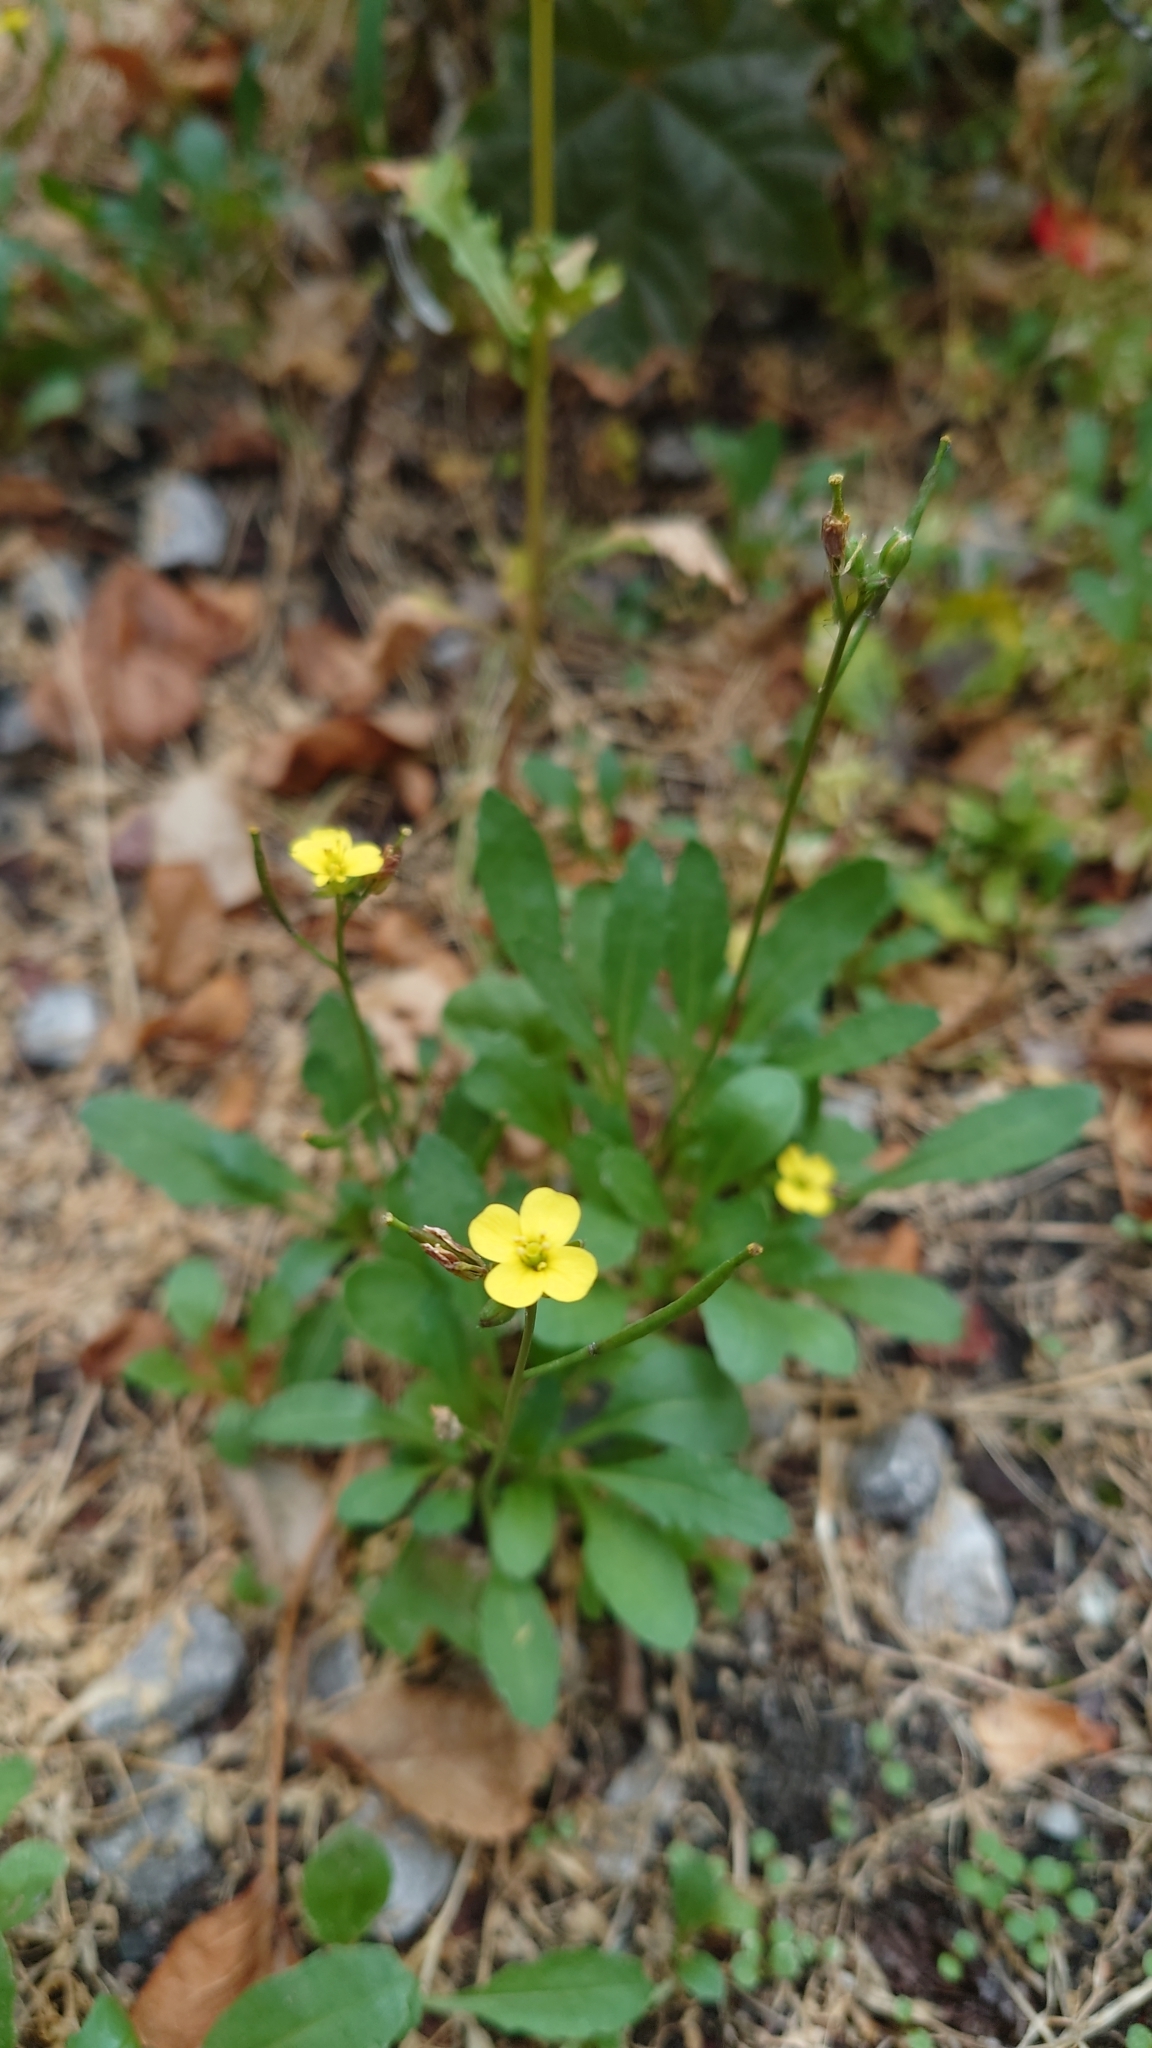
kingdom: Plantae
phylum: Tracheophyta
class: Magnoliopsida
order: Brassicales
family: Brassicaceae
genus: Diplotaxis
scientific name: Diplotaxis muralis
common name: Annual wall-rocket
